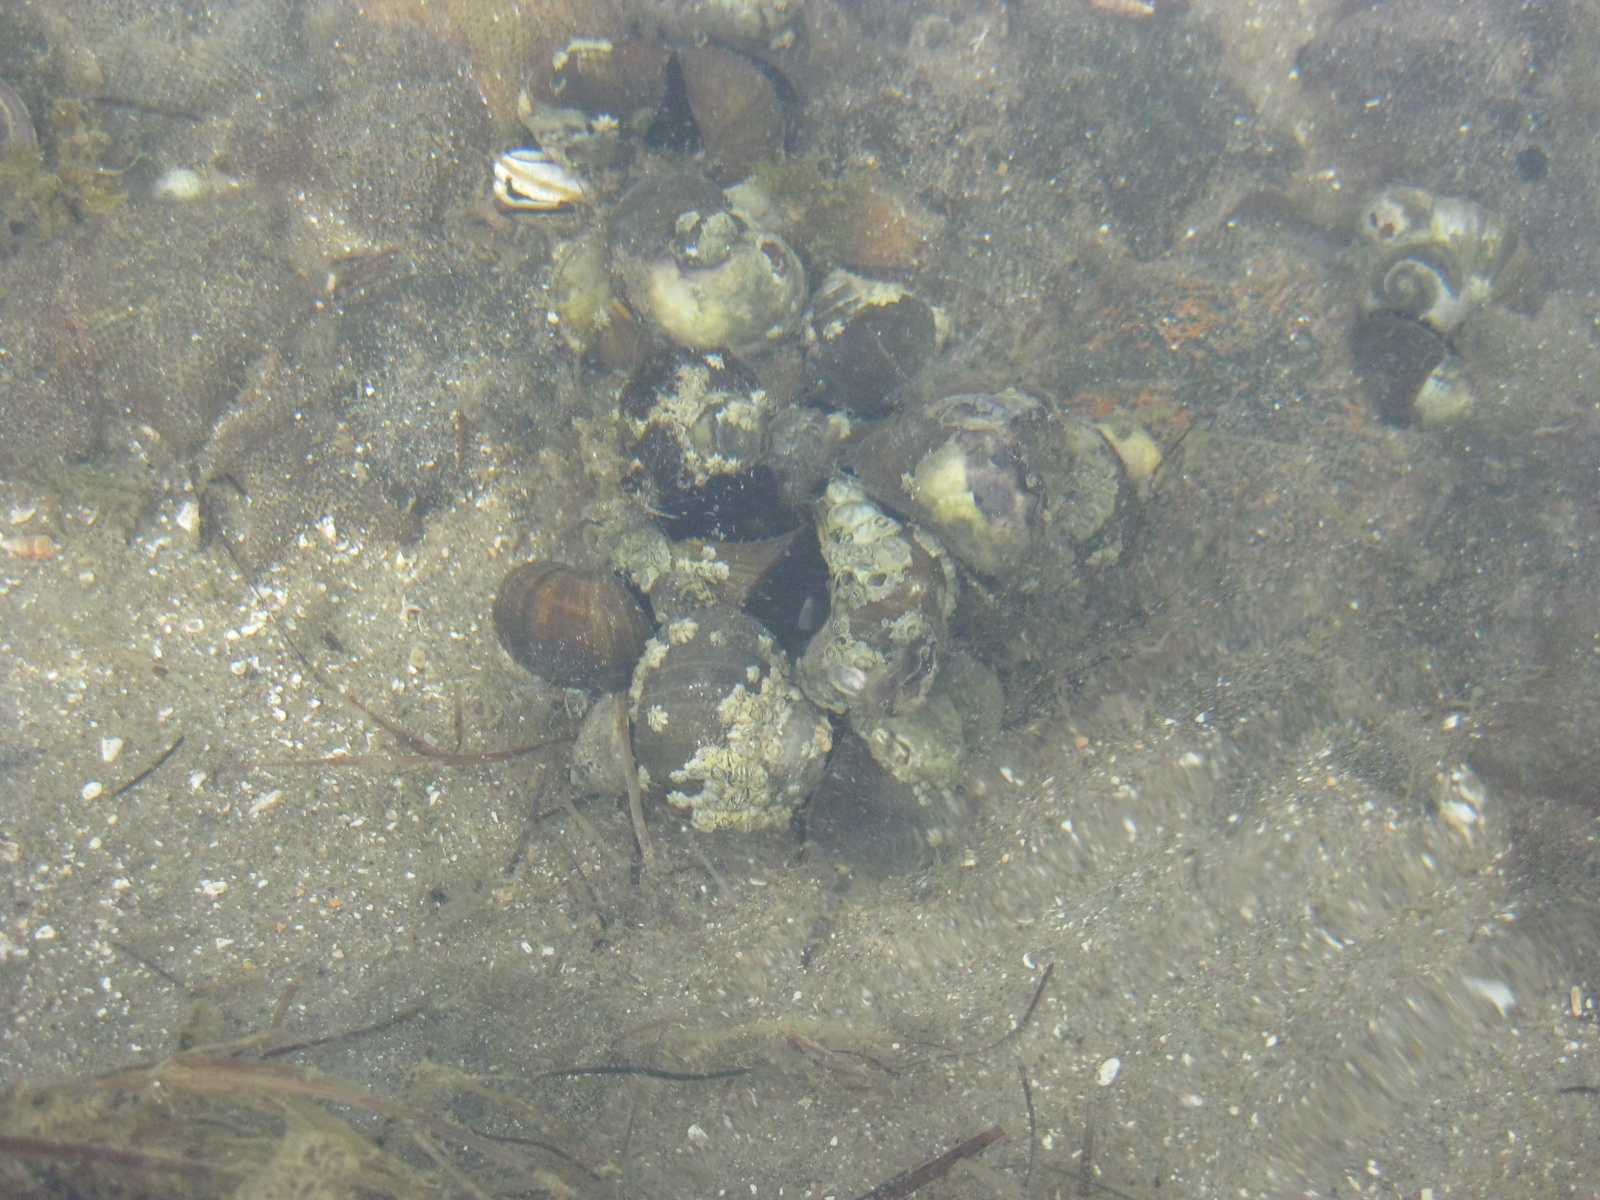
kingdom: Animalia
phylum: Mollusca
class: Gastropoda
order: Trochida
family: Turbinidae
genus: Lunella
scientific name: Lunella smaragda
